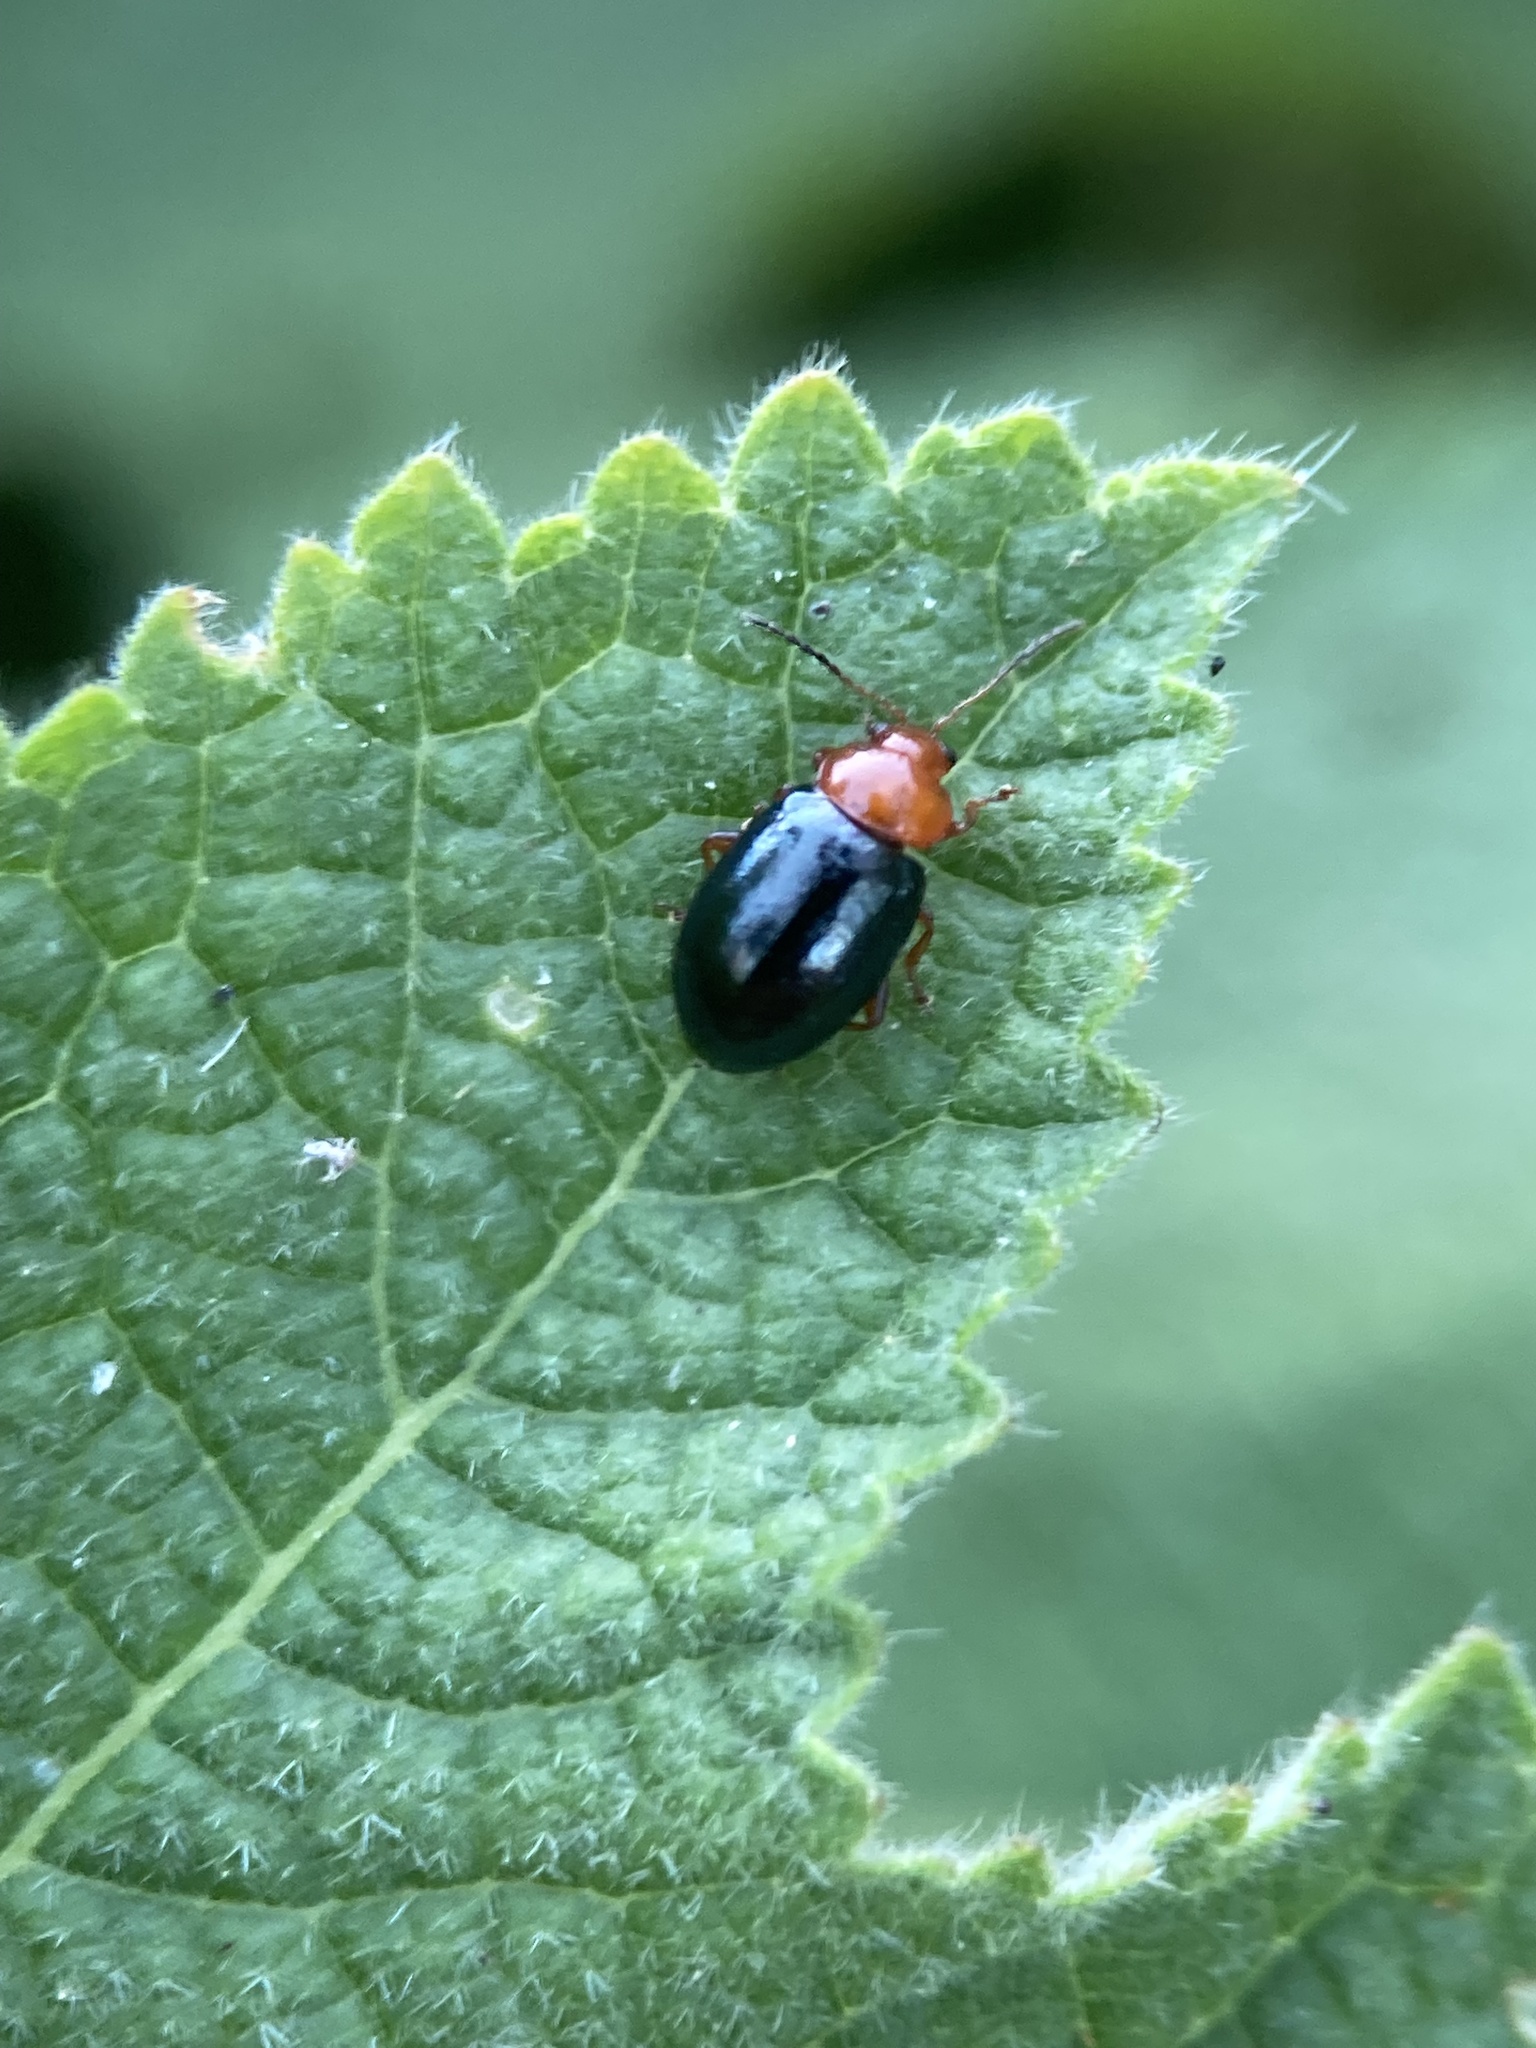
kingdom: Animalia
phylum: Arthropoda
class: Insecta
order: Coleoptera
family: Chrysomelidae
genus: Podagrica
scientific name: Podagrica fuscicornis
